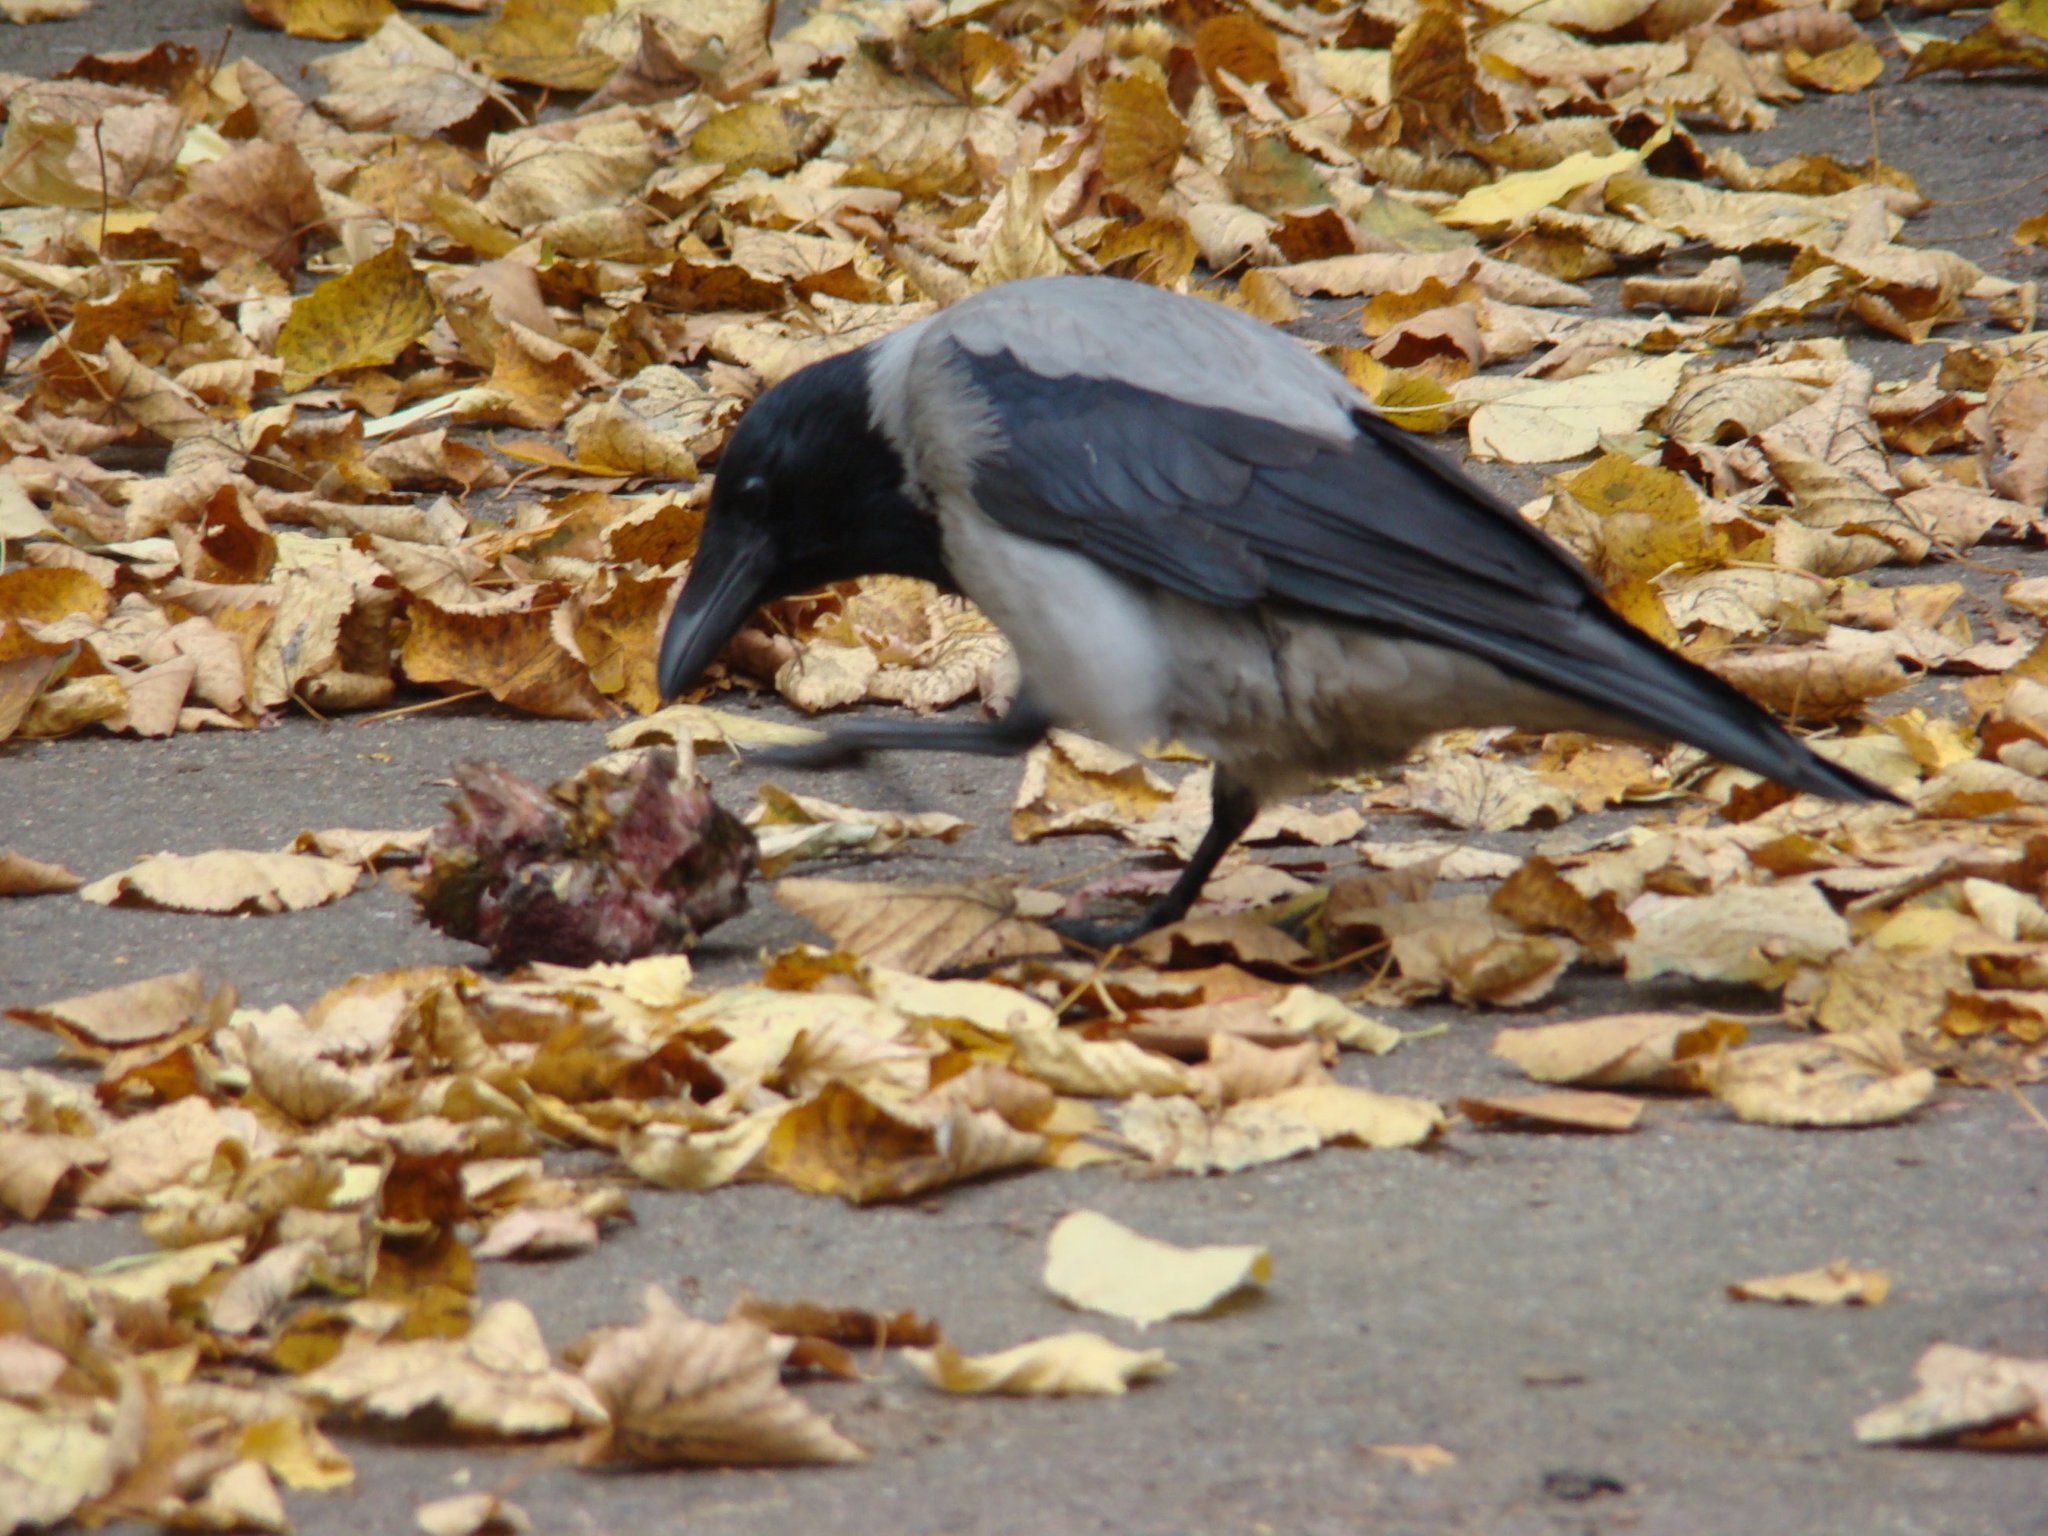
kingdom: Animalia
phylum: Chordata
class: Aves
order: Passeriformes
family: Corvidae
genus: Corvus
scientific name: Corvus cornix
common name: Hooded crow
